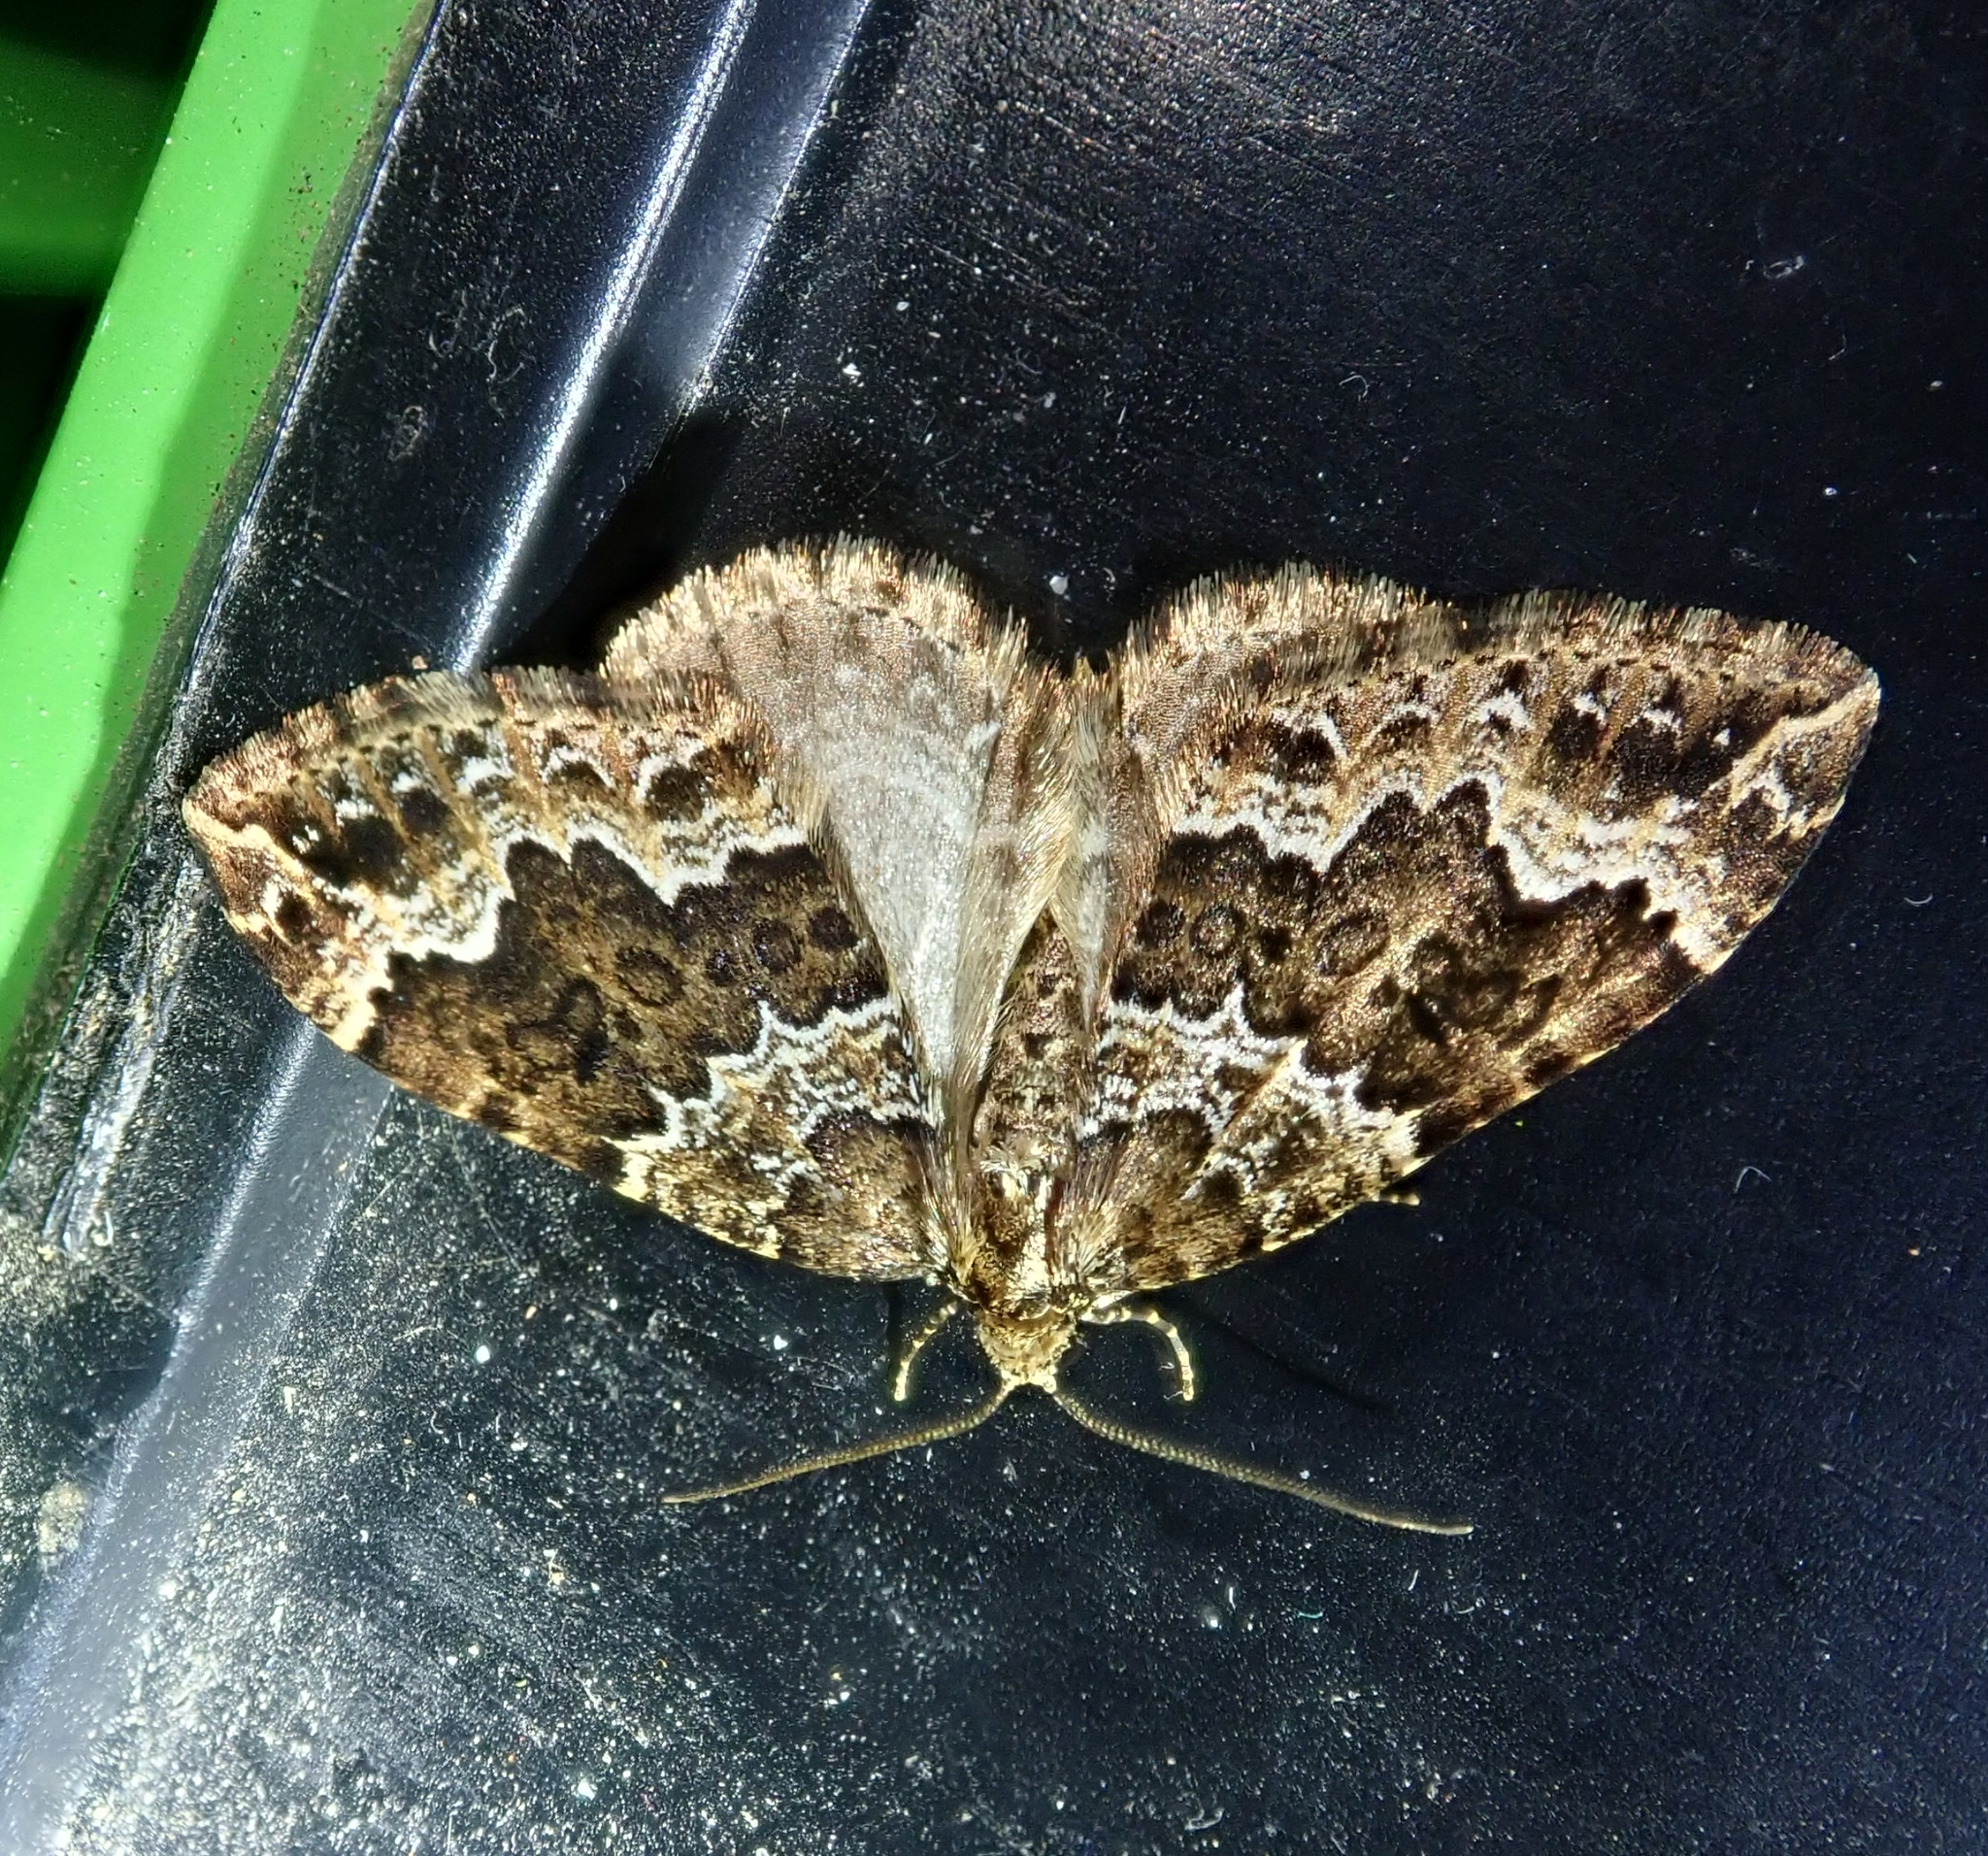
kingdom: Animalia
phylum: Arthropoda
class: Insecta
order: Lepidoptera
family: Geometridae
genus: Lampropteryx
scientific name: Lampropteryx suffumata
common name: Water carpet
